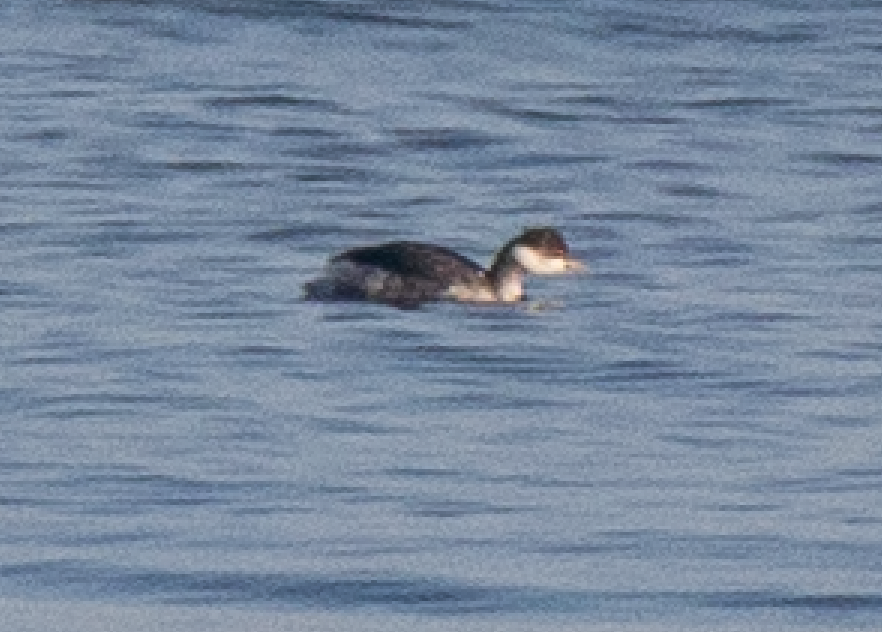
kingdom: Animalia
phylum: Chordata
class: Aves
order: Podicipediformes
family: Podicipedidae
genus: Podiceps
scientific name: Podiceps auritus
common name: Horned grebe
